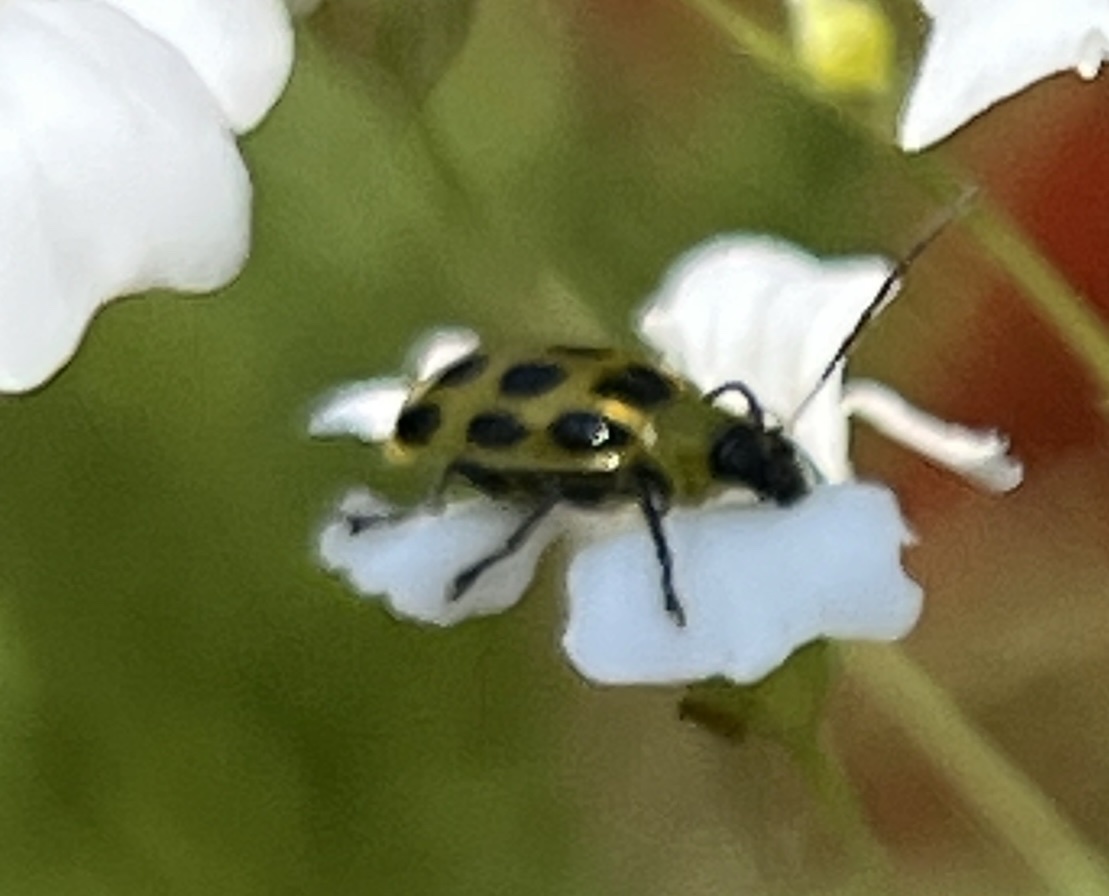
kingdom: Animalia
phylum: Arthropoda
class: Insecta
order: Coleoptera
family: Chrysomelidae
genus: Diabrotica
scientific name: Diabrotica undecimpunctata
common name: Spotted cucumber beetle
